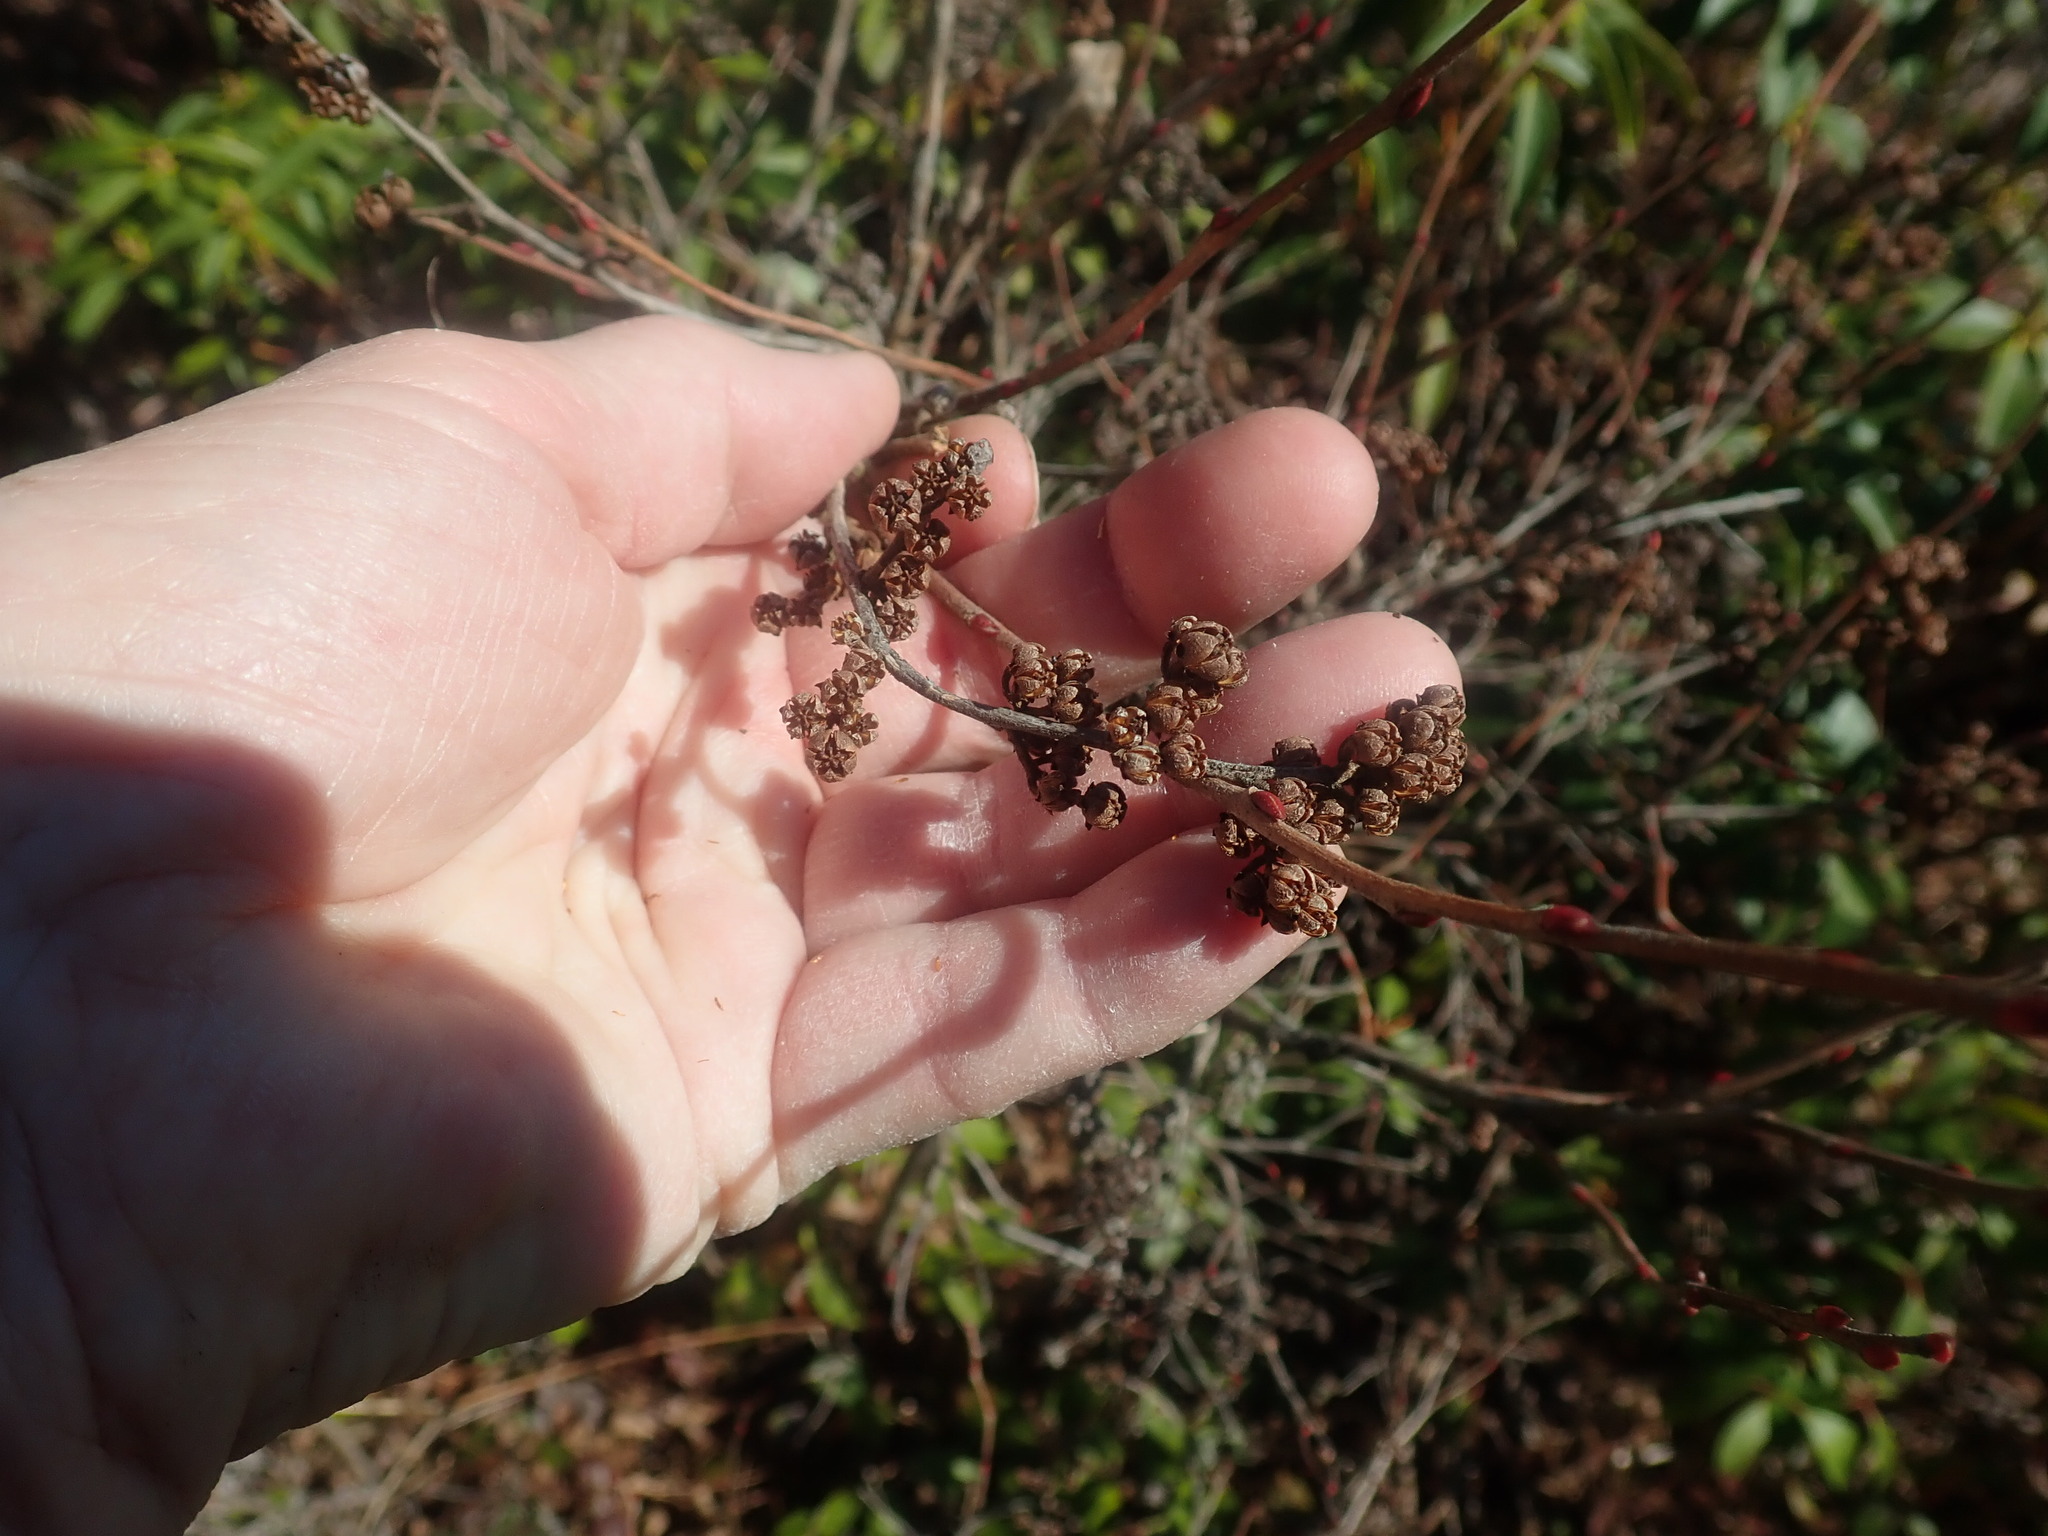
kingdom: Plantae
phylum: Tracheophyta
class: Magnoliopsida
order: Ericales
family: Ericaceae
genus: Lyonia
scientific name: Lyonia ligustrina
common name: Maleberry
